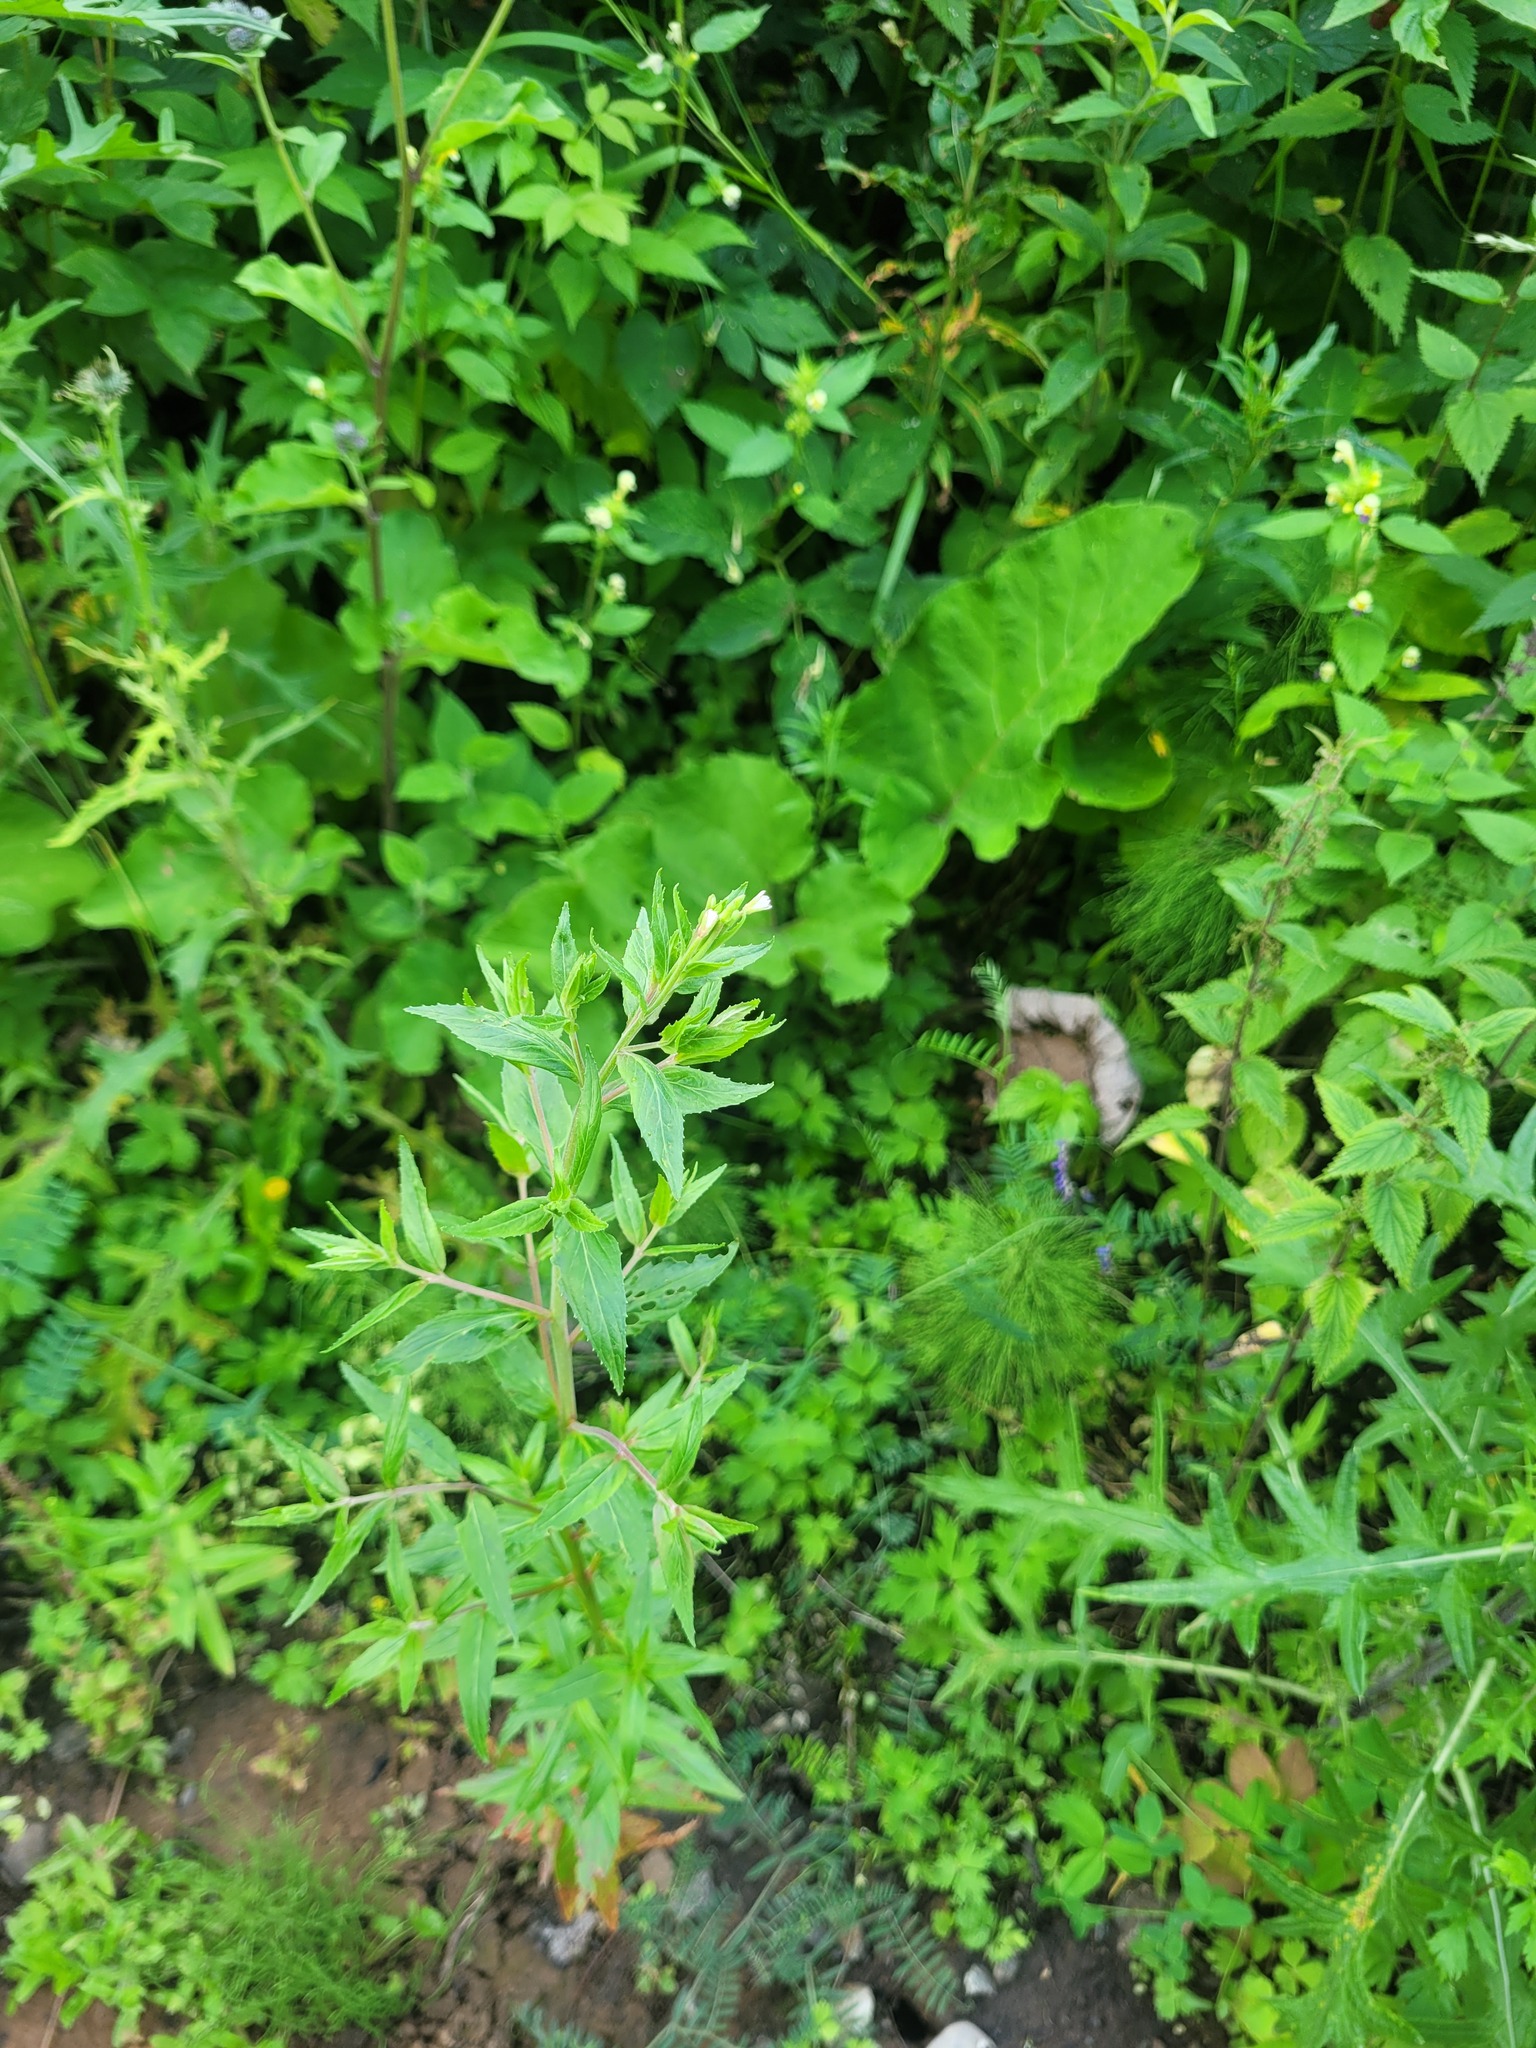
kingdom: Plantae
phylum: Tracheophyta
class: Magnoliopsida
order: Myrtales
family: Onagraceae
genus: Epilobium
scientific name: Epilobium pseudorubescens
